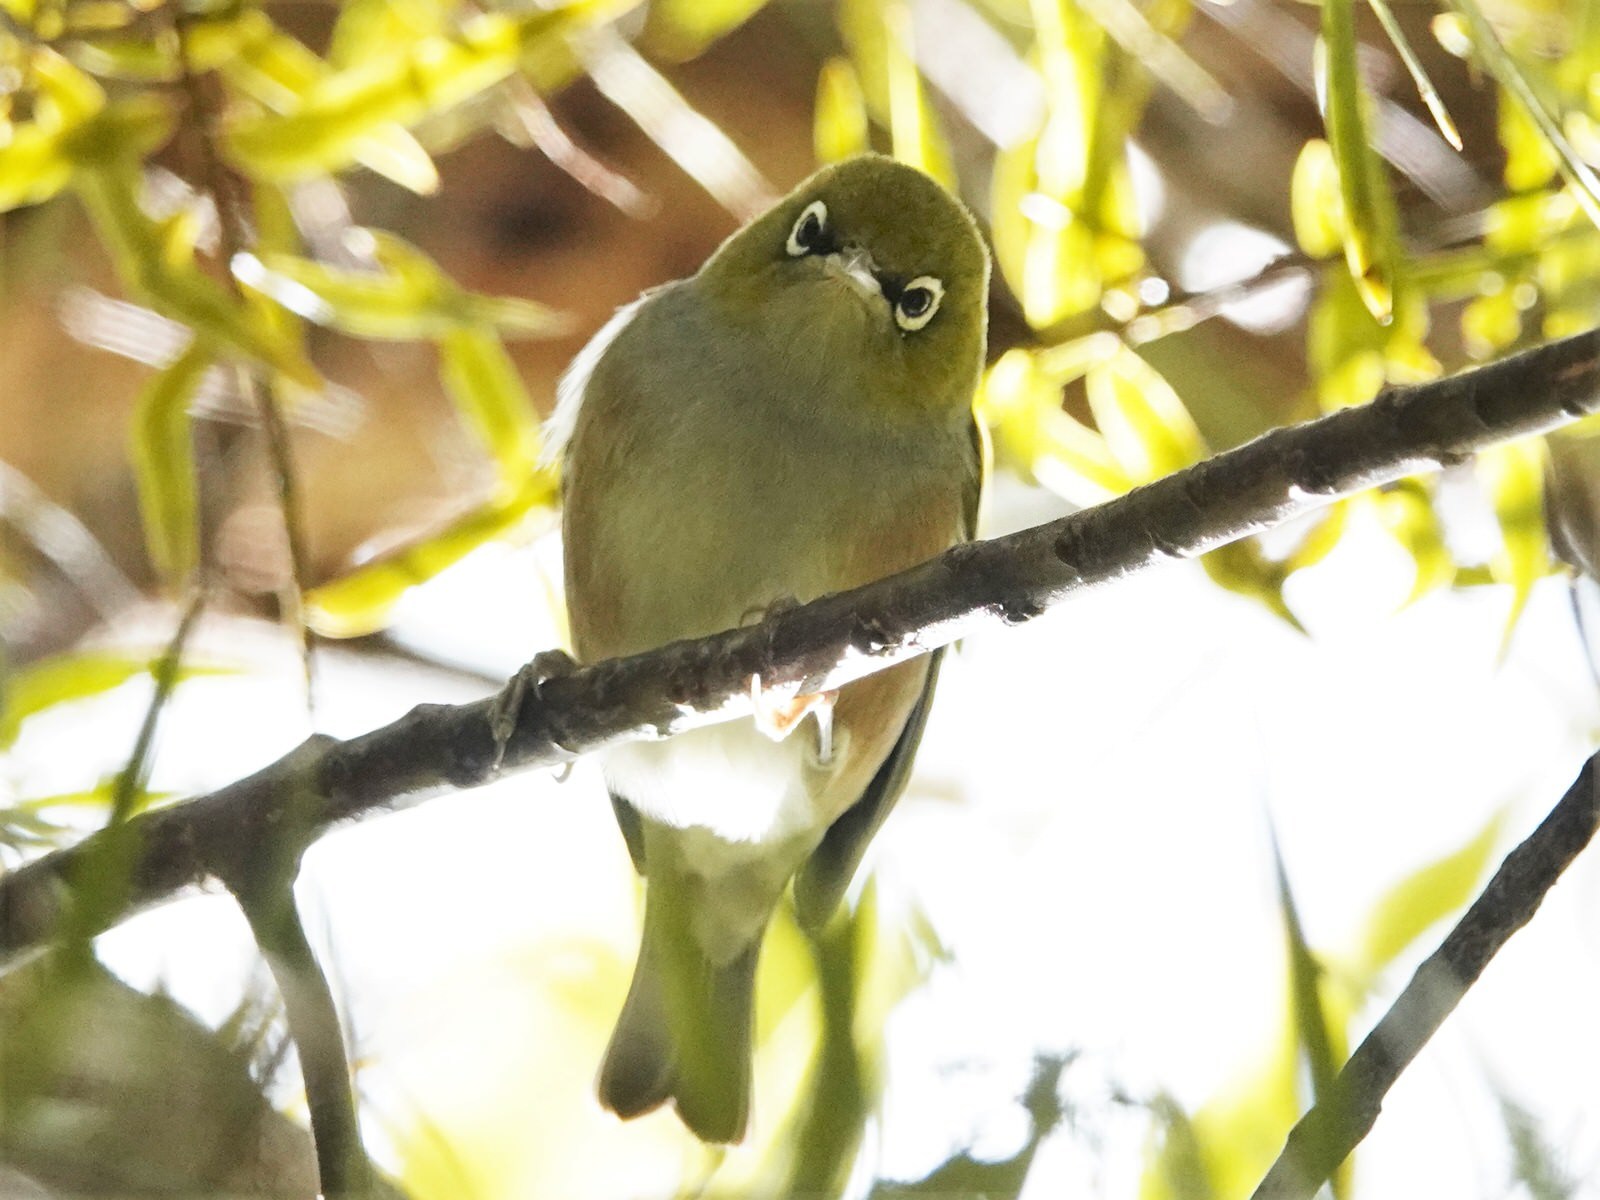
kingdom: Animalia
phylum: Chordata
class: Aves
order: Passeriformes
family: Zosteropidae
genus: Zosterops
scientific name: Zosterops lateralis
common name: Silvereye
